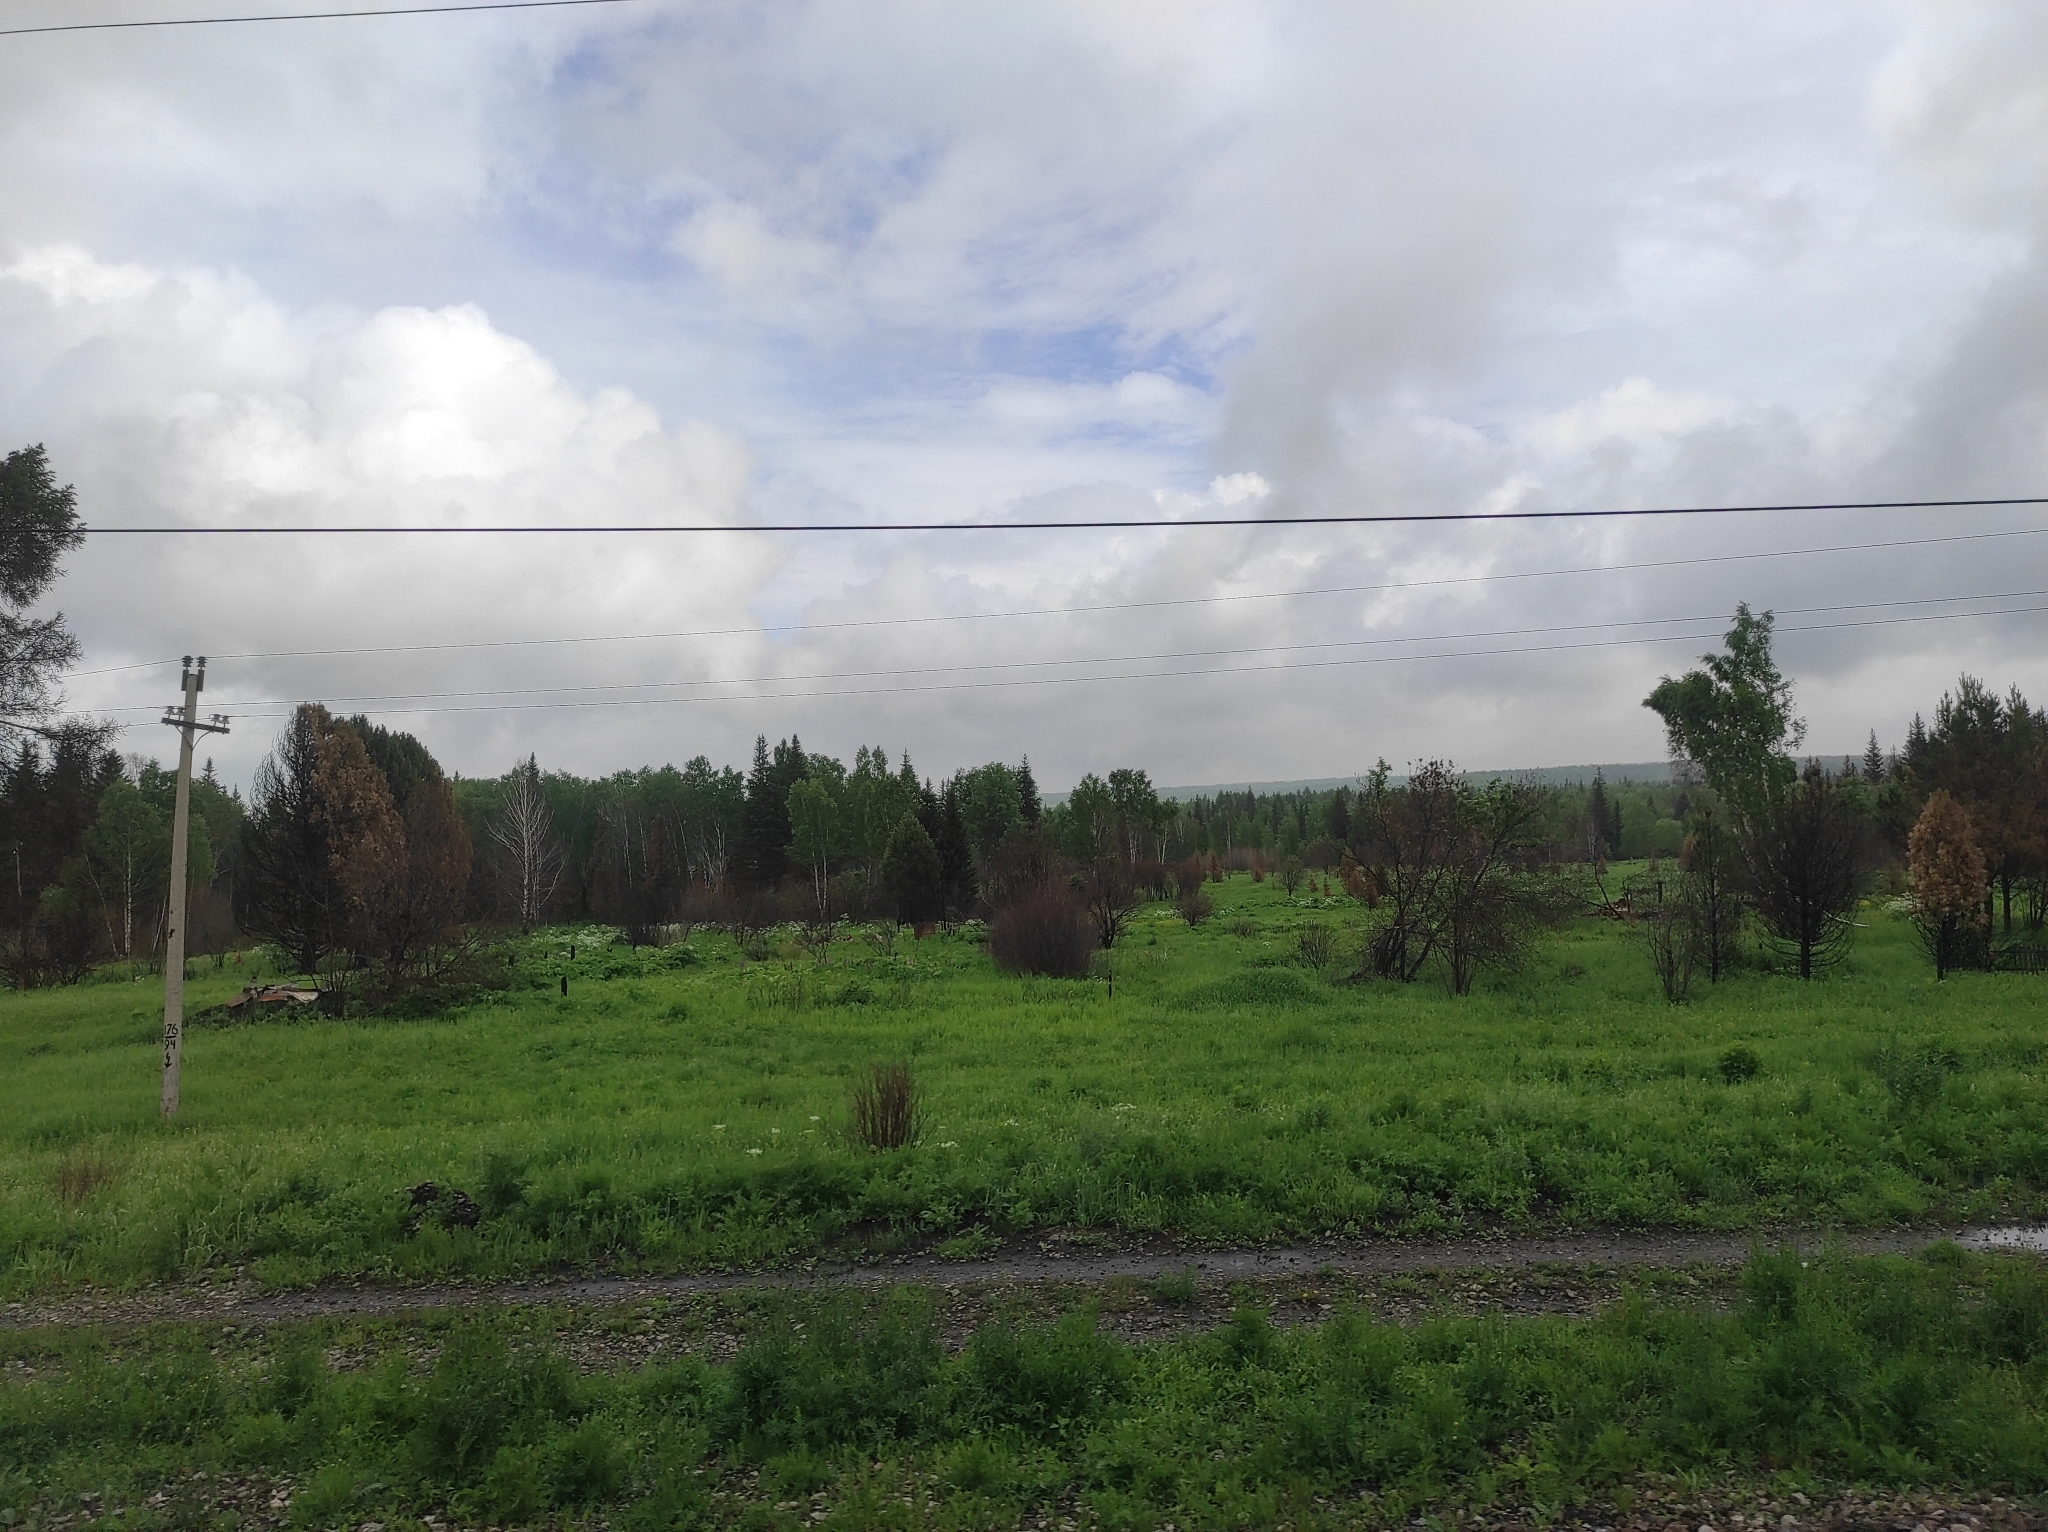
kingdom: Plantae
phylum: Tracheophyta
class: Pinopsida
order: Pinales
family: Pinaceae
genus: Pinus
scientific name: Pinus sylvestris
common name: Scots pine
